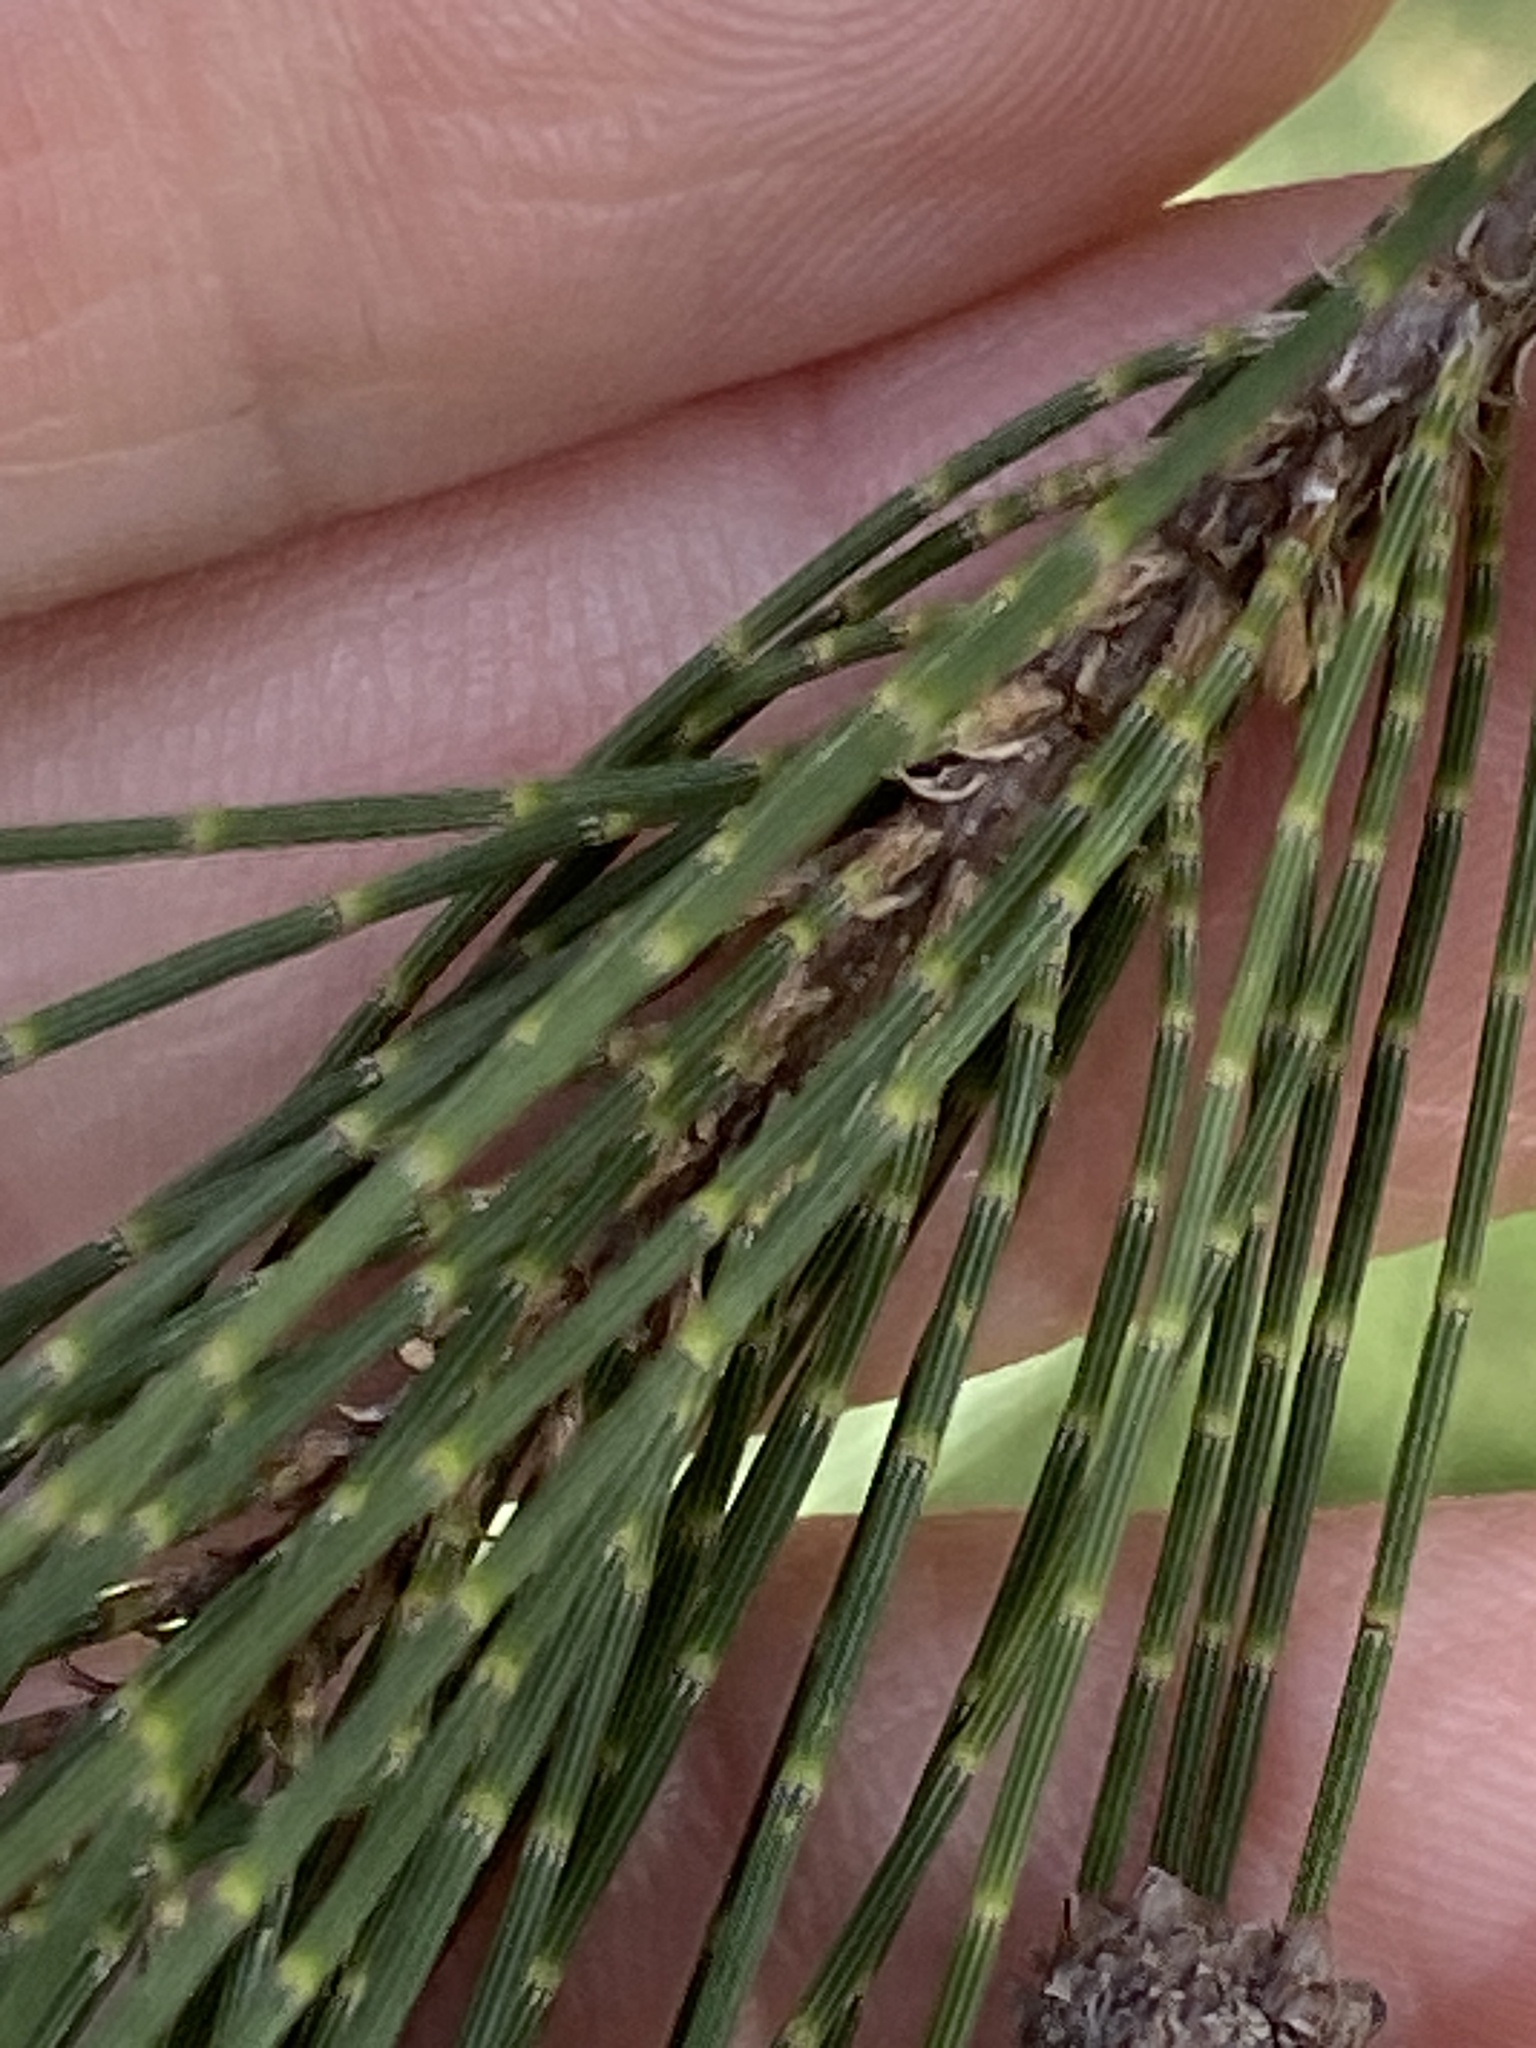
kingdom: Plantae
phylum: Tracheophyta
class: Magnoliopsida
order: Fagales
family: Casuarinaceae
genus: Casuarina
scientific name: Casuarina cunninghamiana
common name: River sheoak
